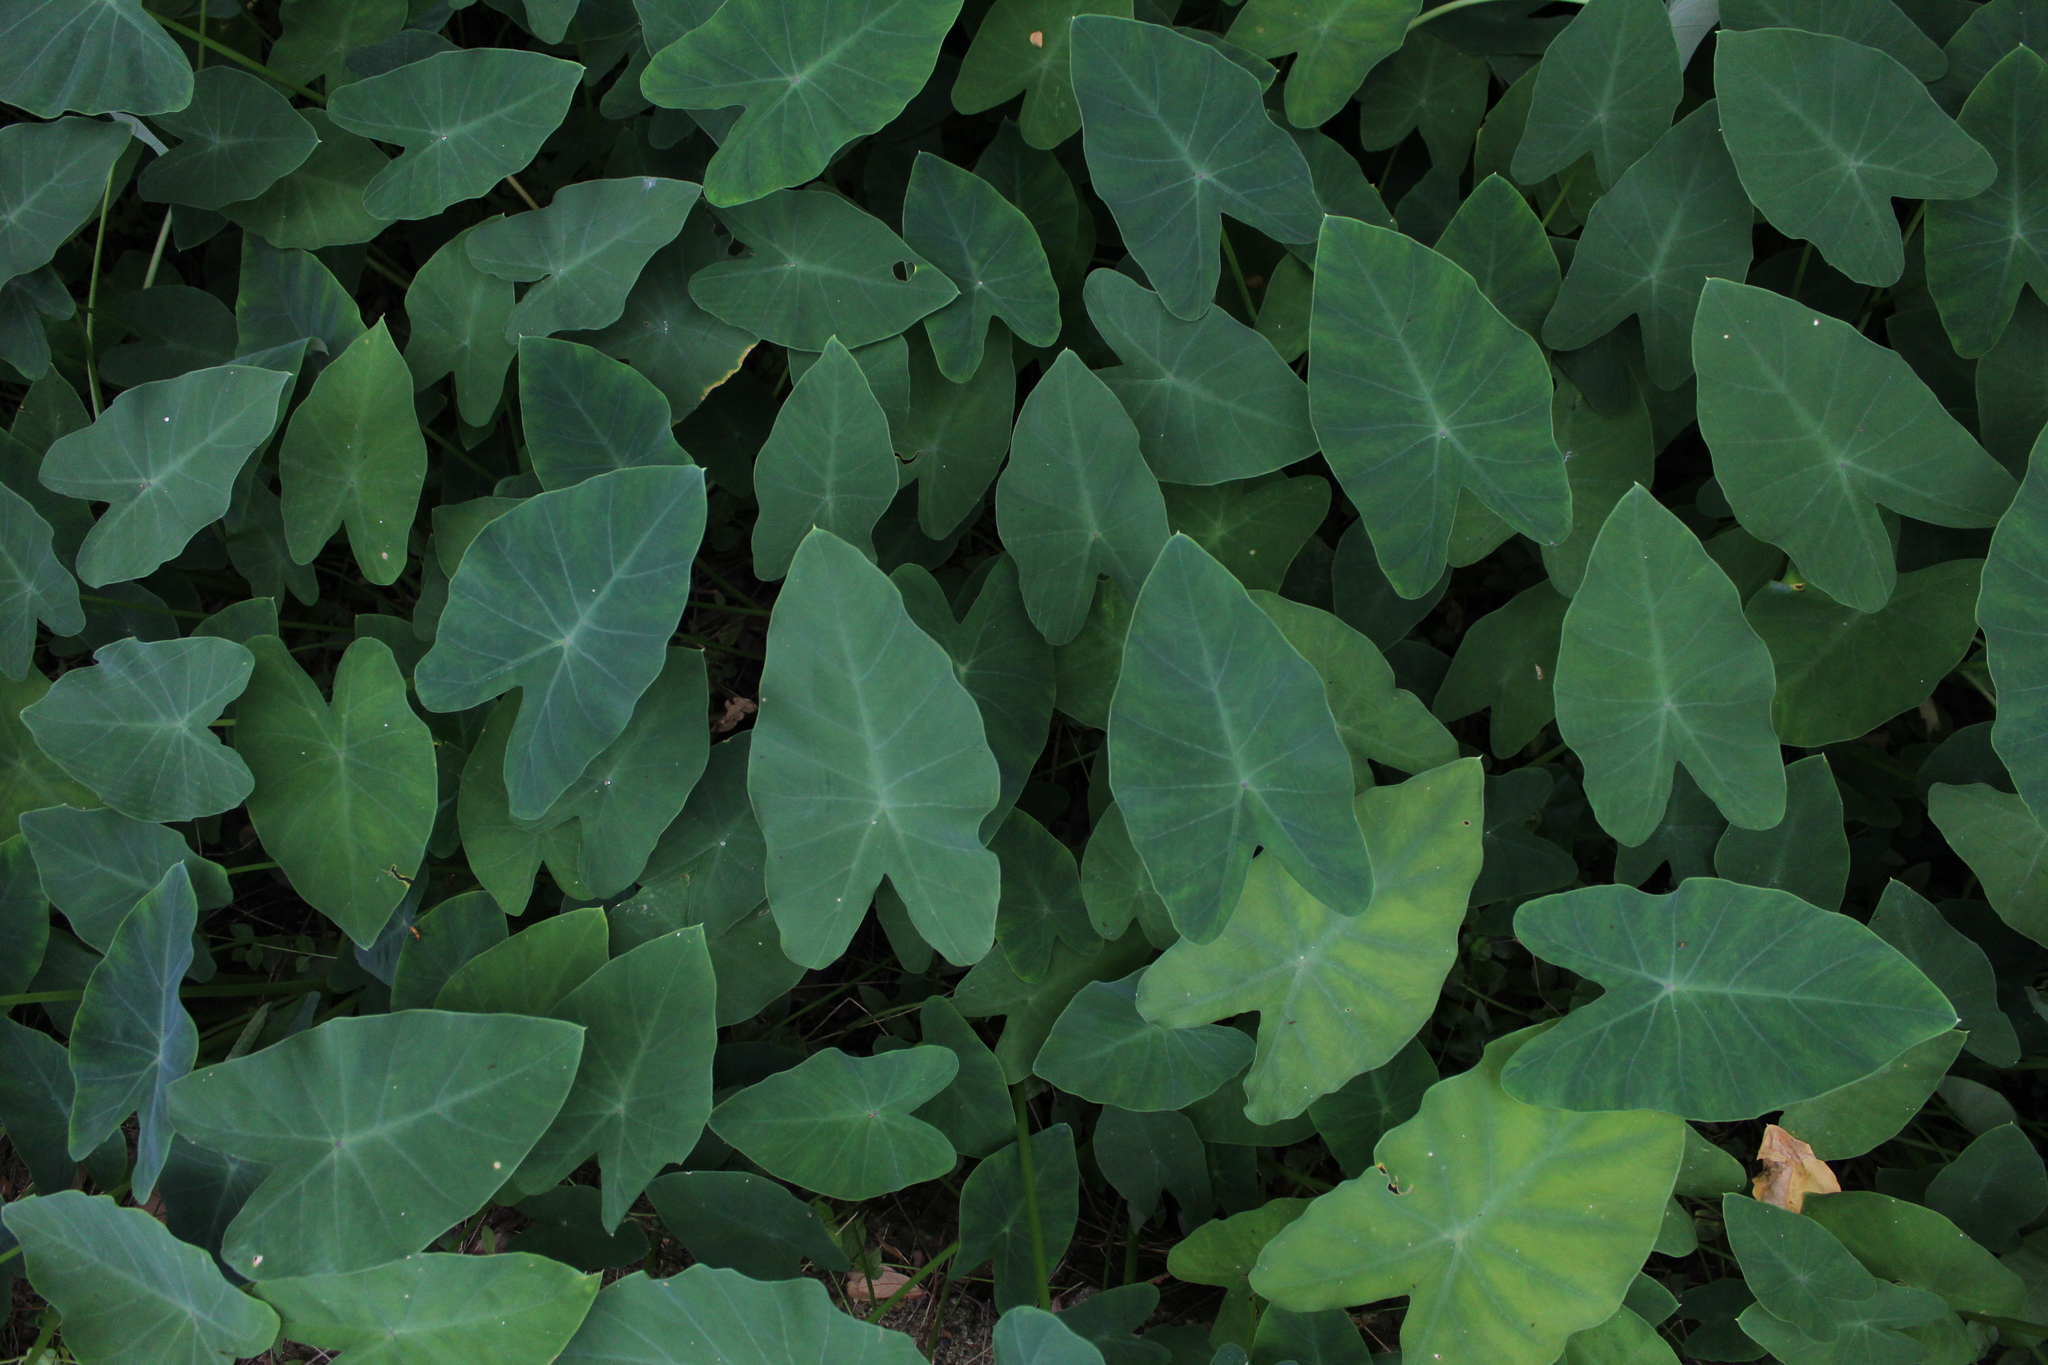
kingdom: Plantae
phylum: Tracheophyta
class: Liliopsida
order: Alismatales
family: Araceae
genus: Colocasia
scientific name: Colocasia esculenta
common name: Taro
